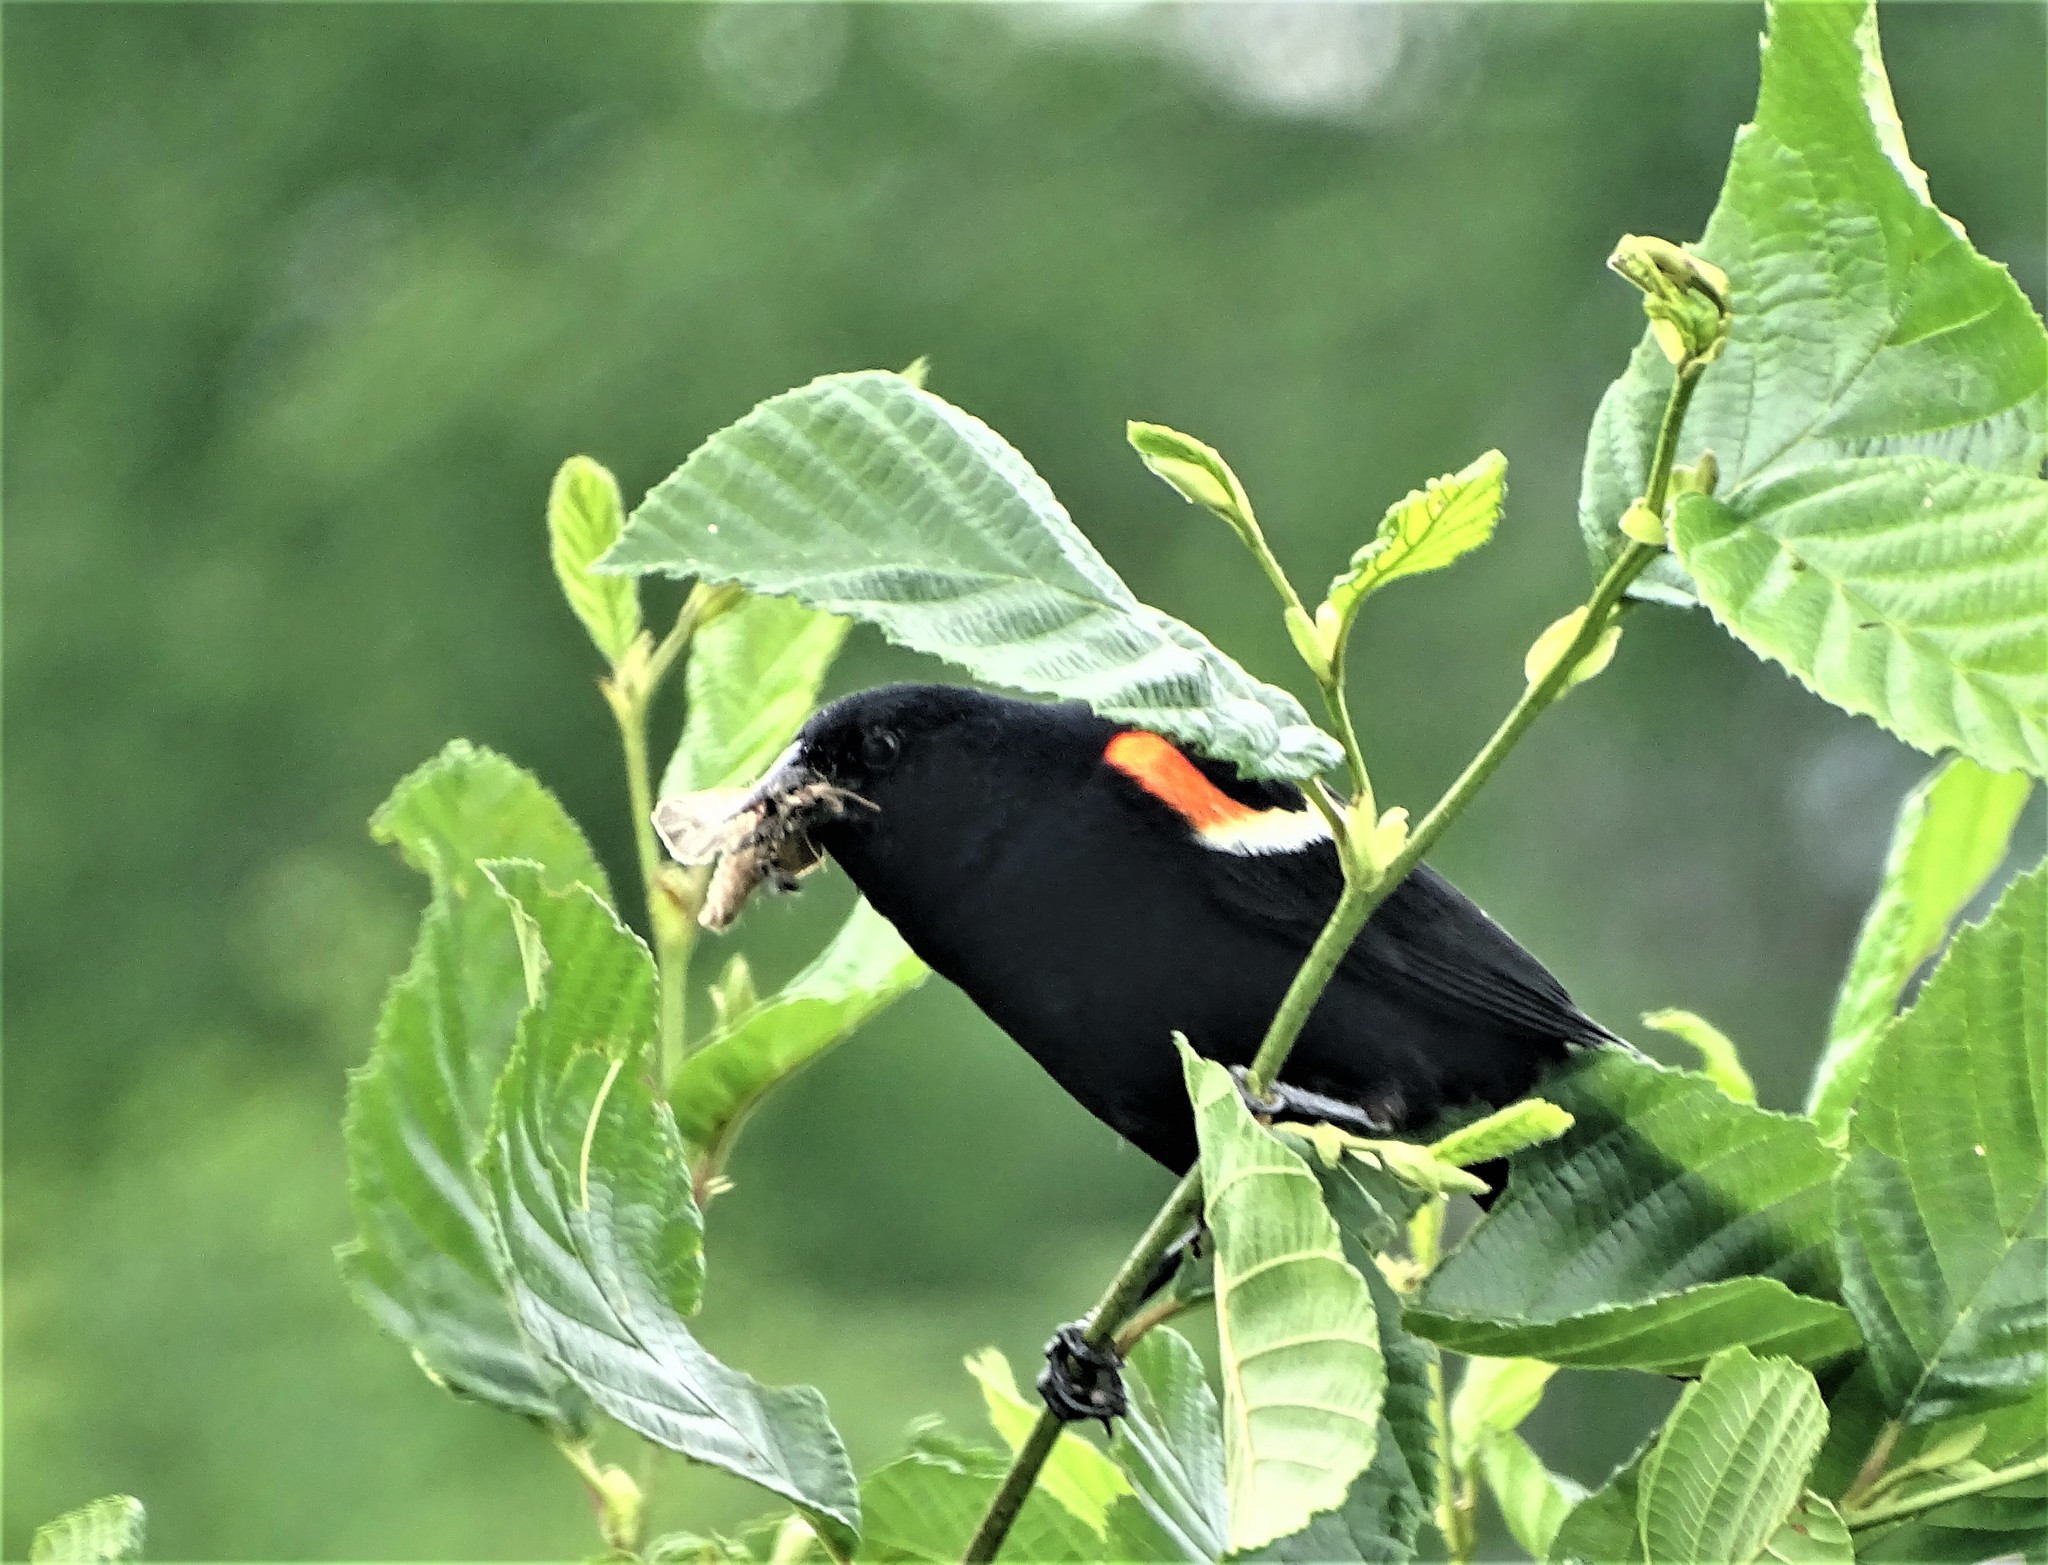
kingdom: Animalia
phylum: Chordata
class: Aves
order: Passeriformes
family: Icteridae
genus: Agelaius
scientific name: Agelaius phoeniceus
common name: Red-winged blackbird
